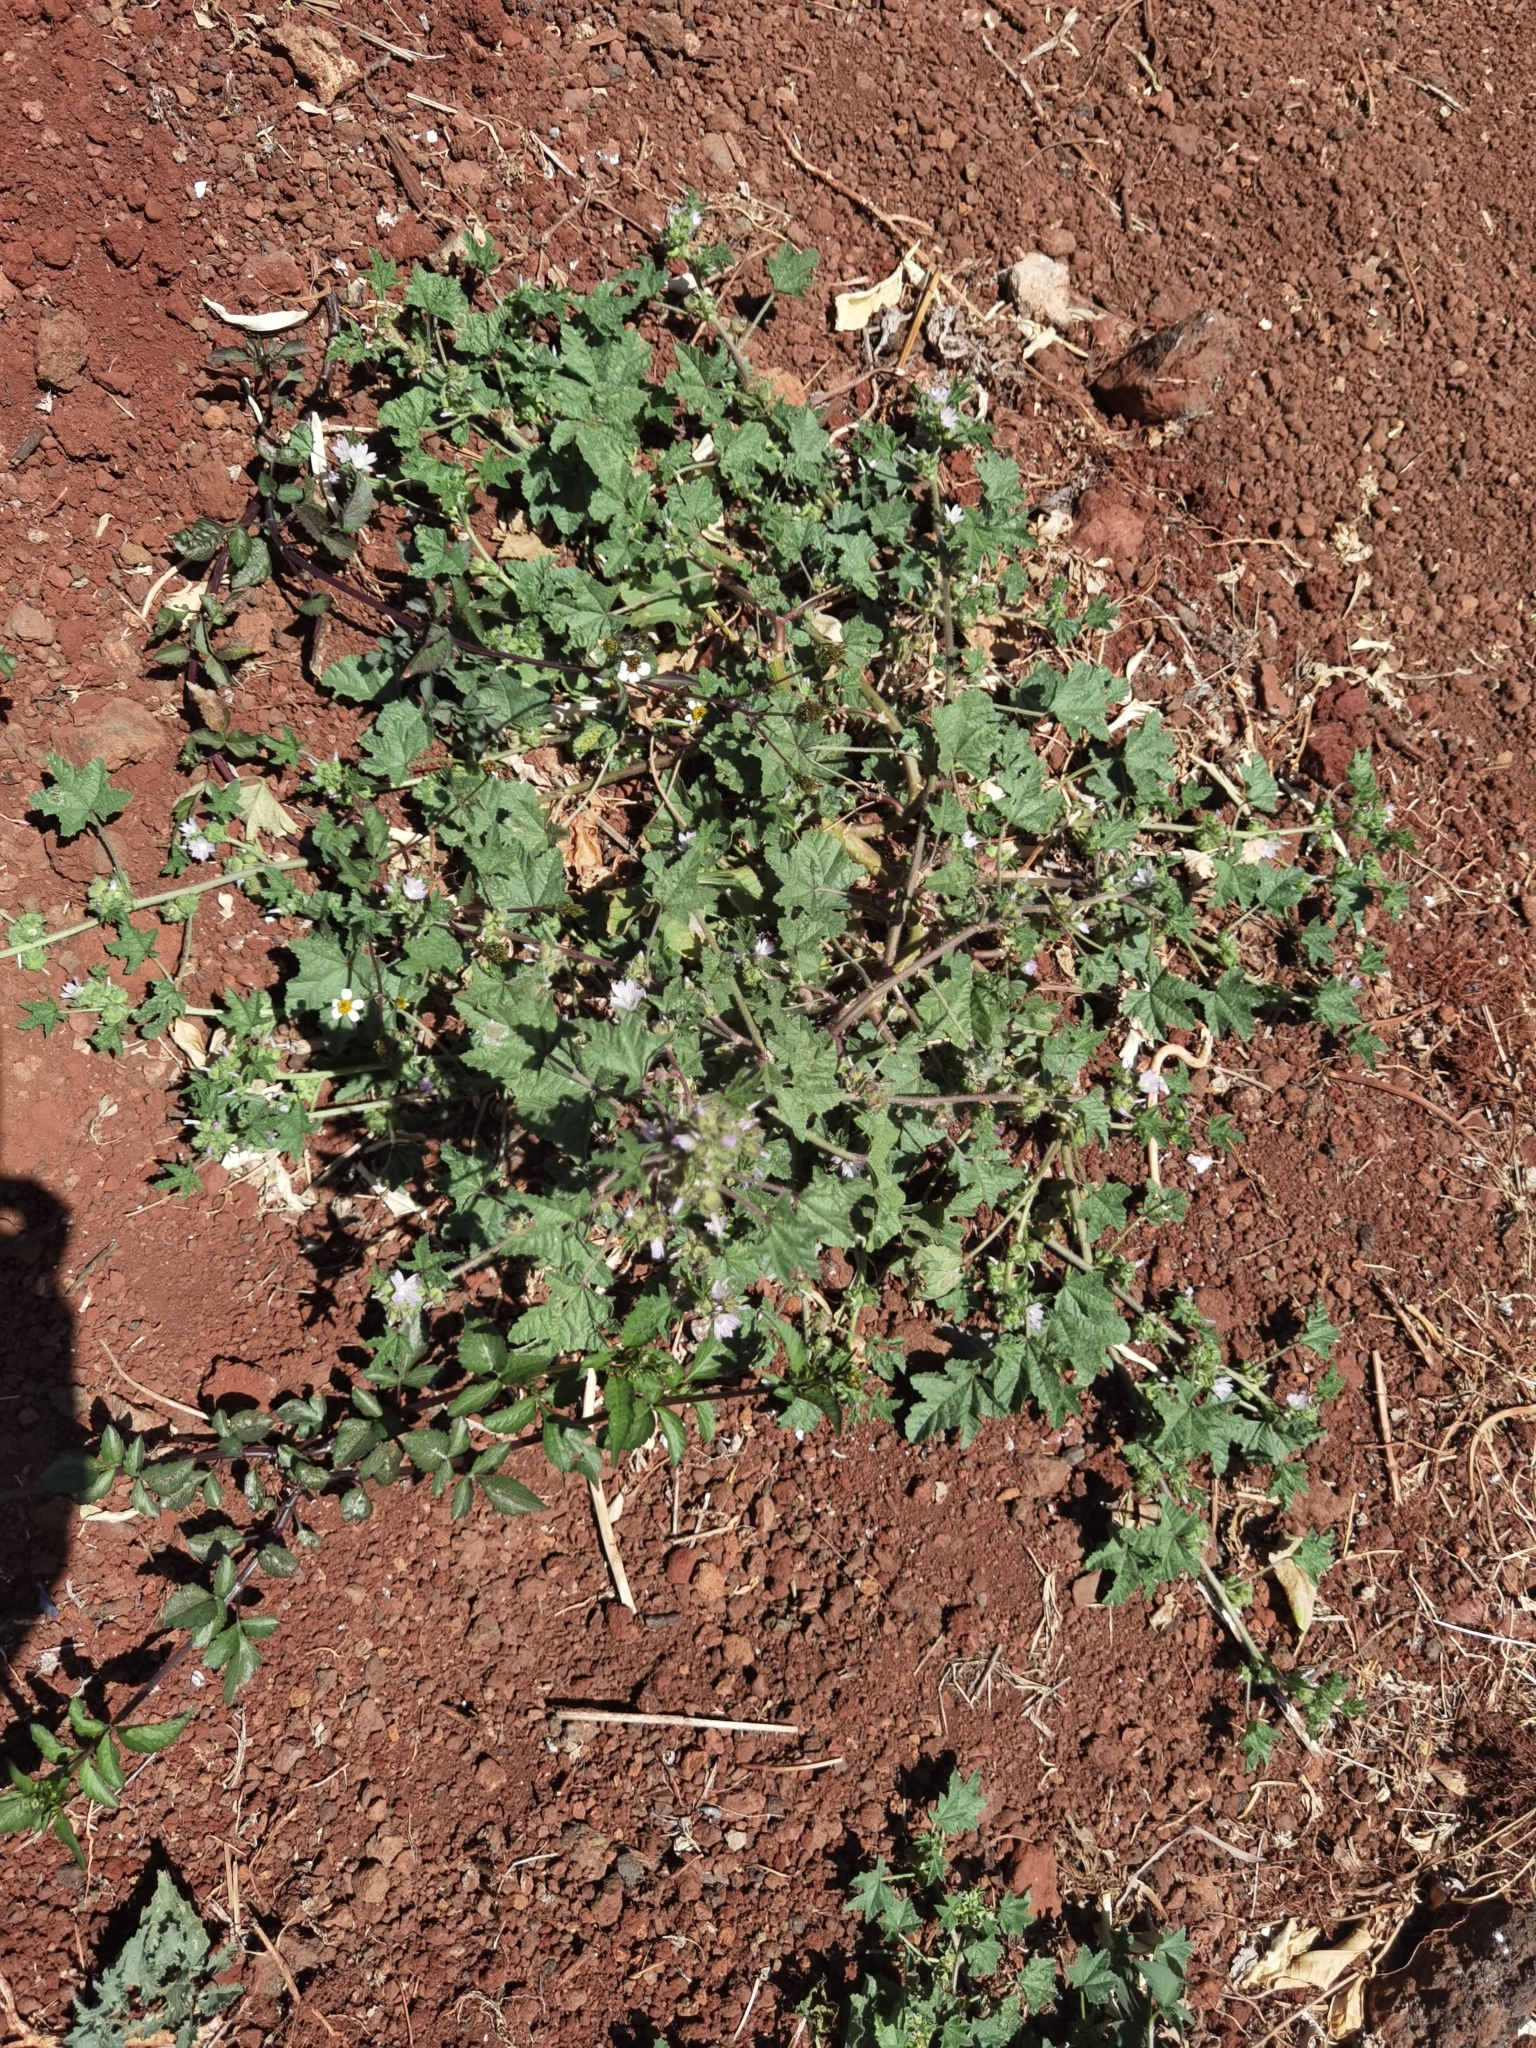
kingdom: Plantae
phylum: Tracheophyta
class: Magnoliopsida
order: Malvales
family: Malvaceae
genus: Malva
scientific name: Malva parviflora
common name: Least mallow
